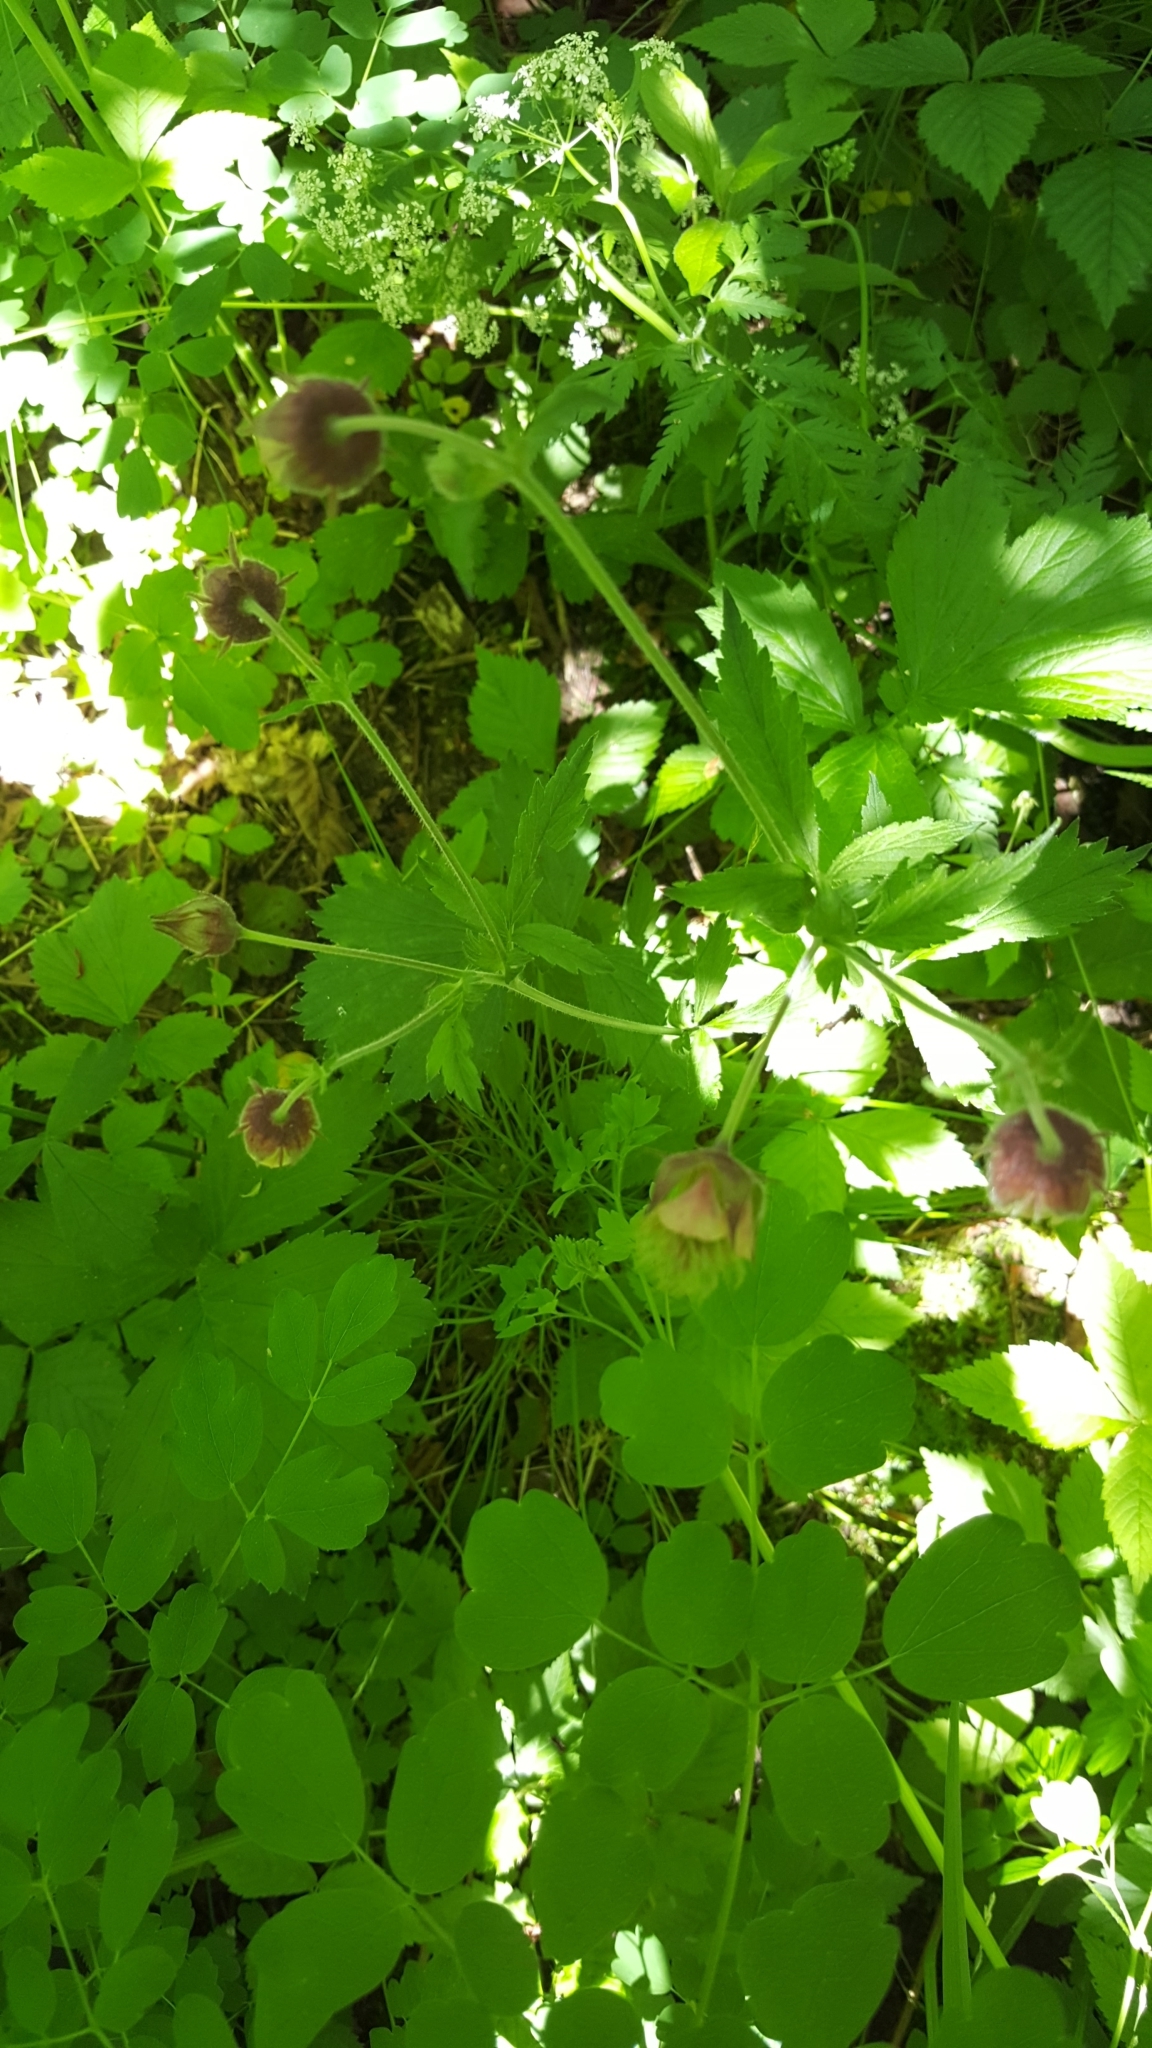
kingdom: Plantae
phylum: Tracheophyta
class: Magnoliopsida
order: Rosales
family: Rosaceae
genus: Geum
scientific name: Geum rivale
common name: Water avens
